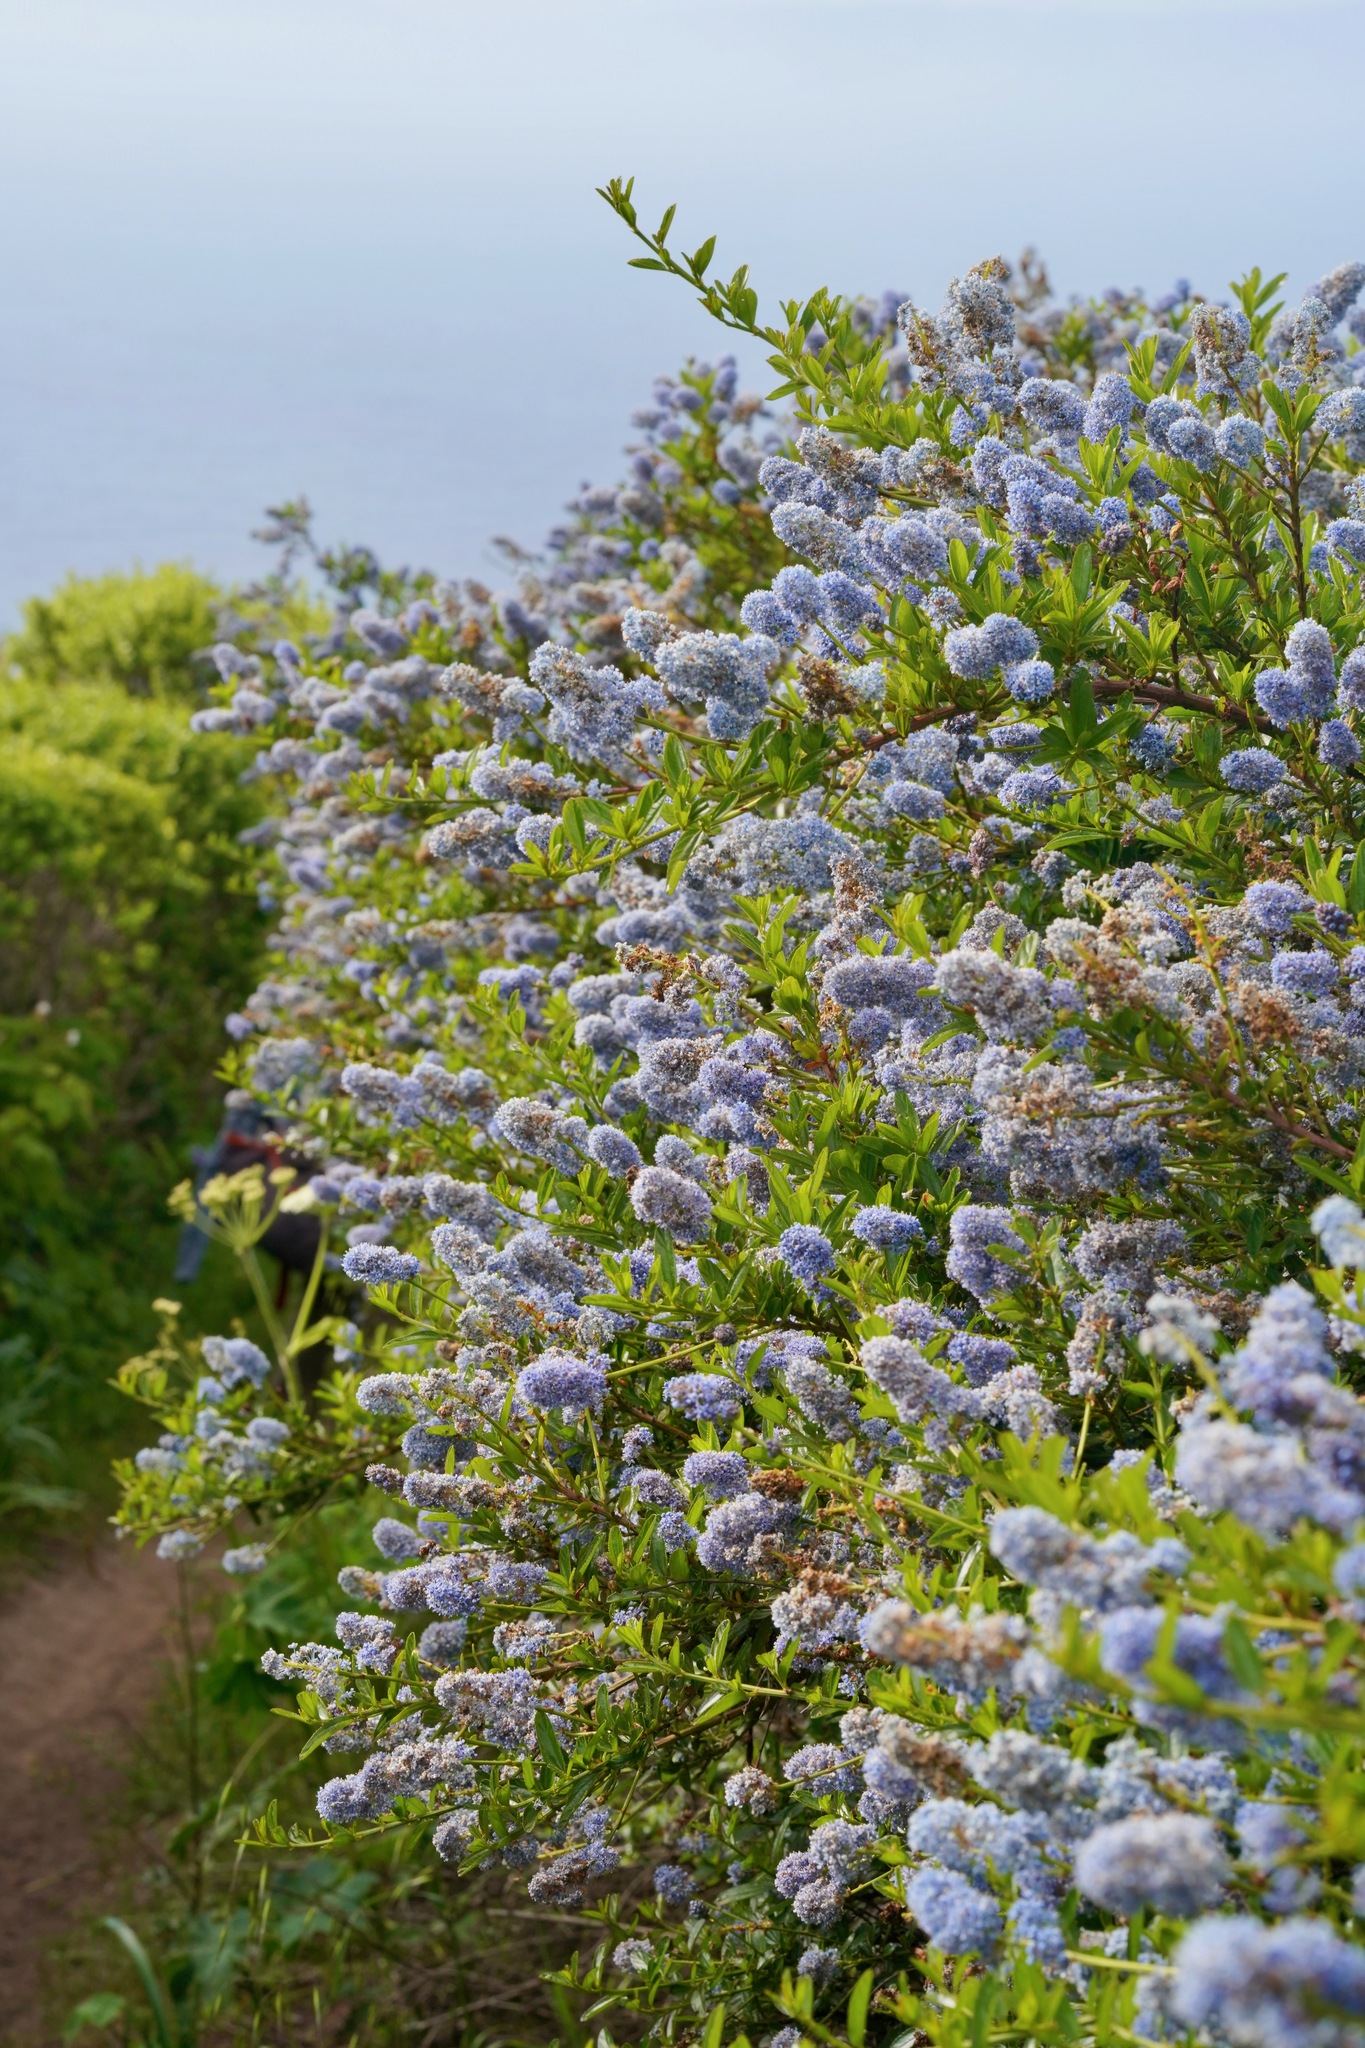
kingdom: Plantae
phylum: Tracheophyta
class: Magnoliopsida
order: Rosales
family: Rhamnaceae
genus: Ceanothus
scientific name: Ceanothus thyrsiflorus
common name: California-lilac
